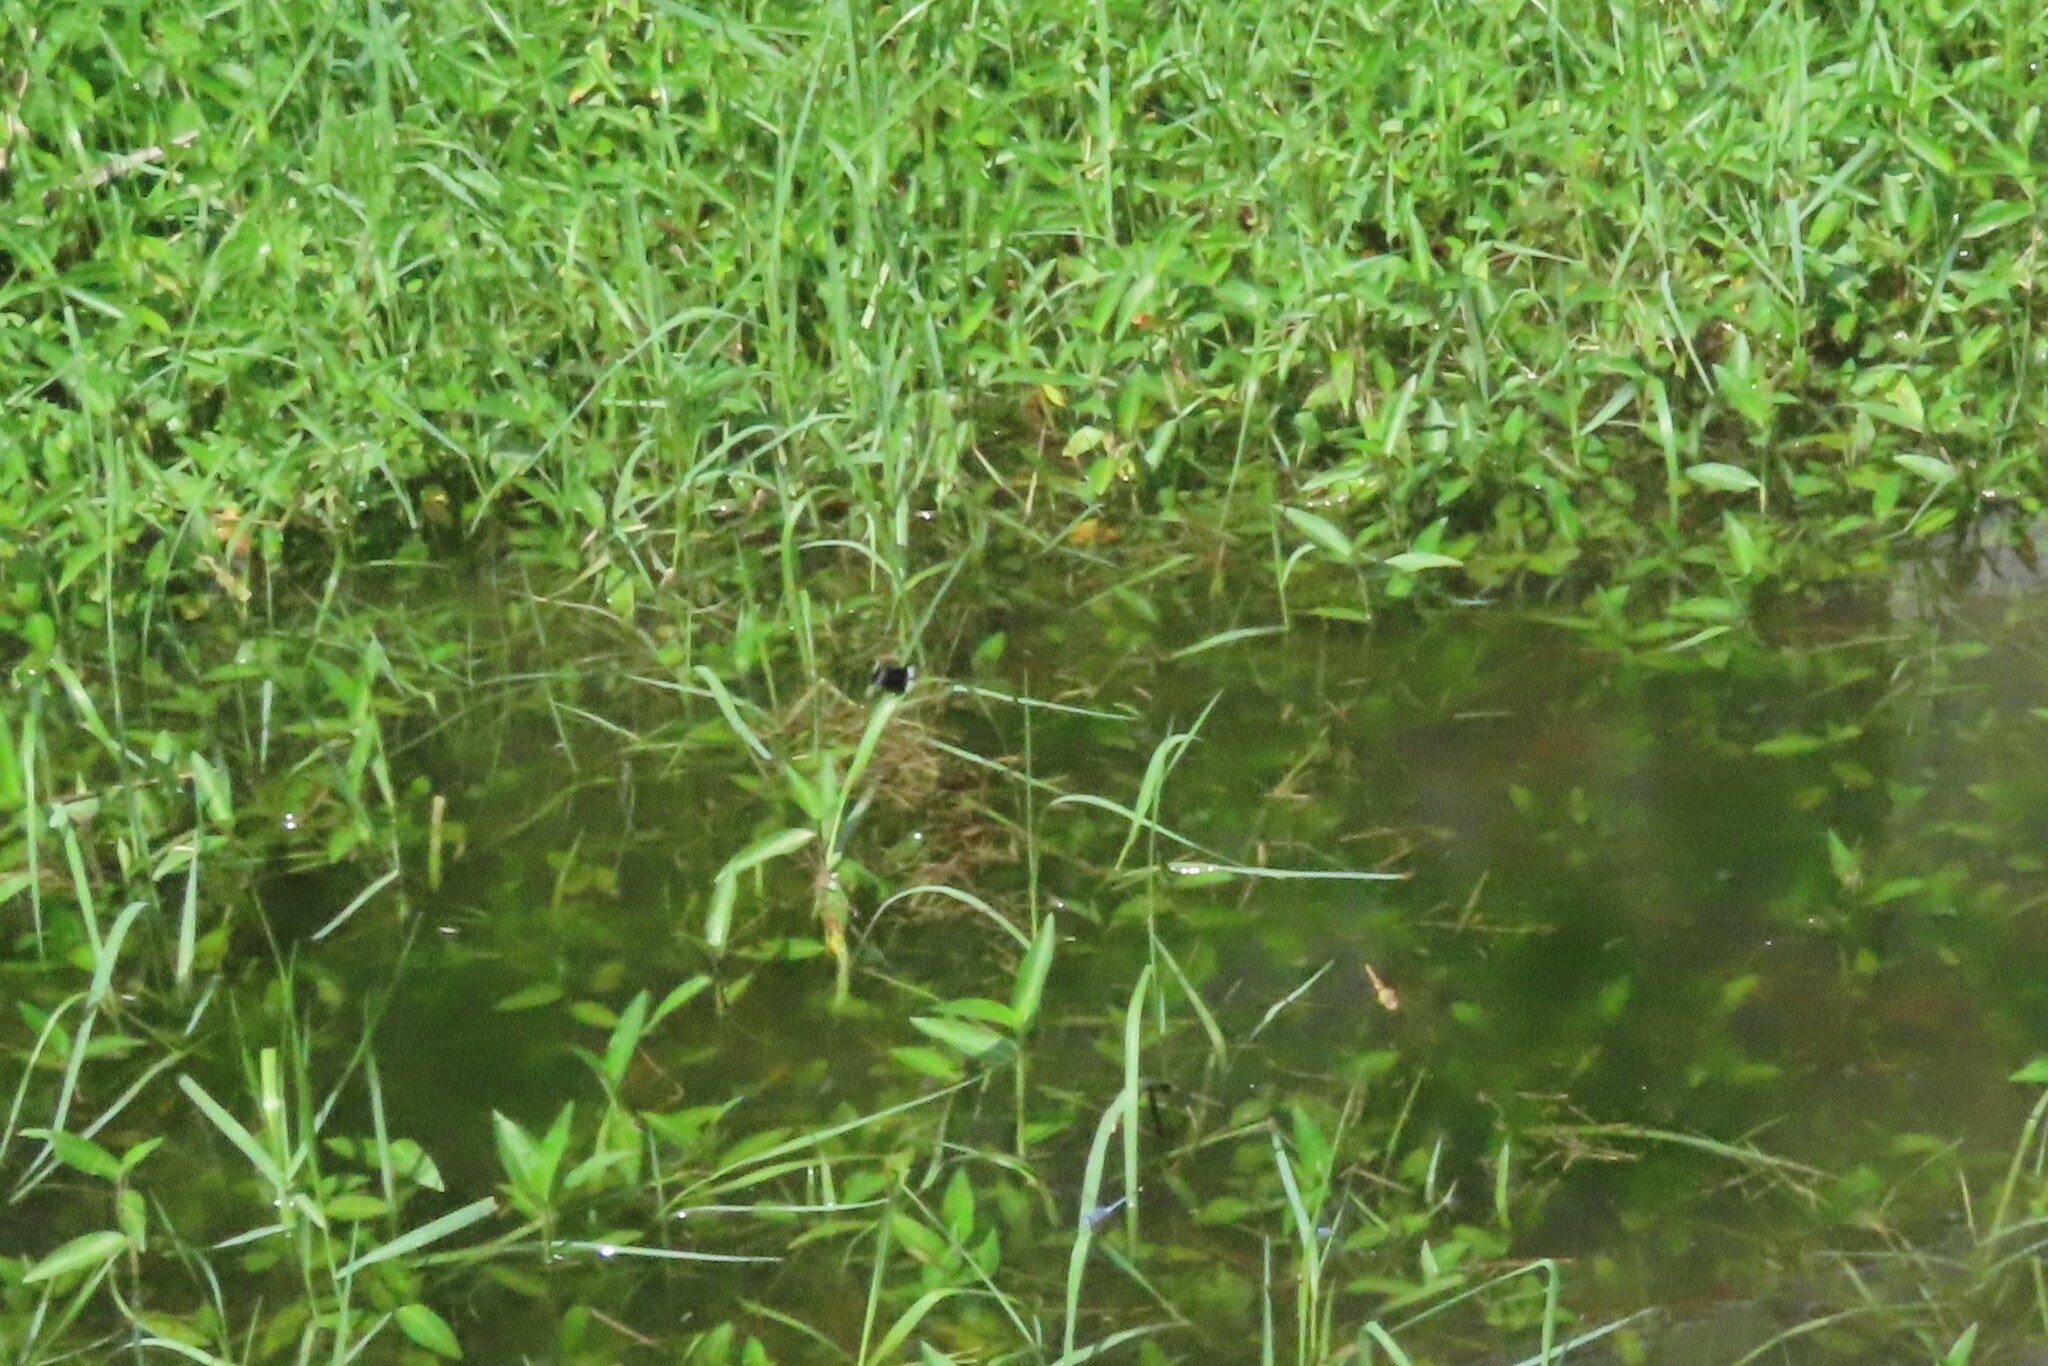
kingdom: Animalia
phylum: Arthropoda
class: Insecta
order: Odonata
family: Libellulidae
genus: Neurothemis
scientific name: Neurothemis tullia
